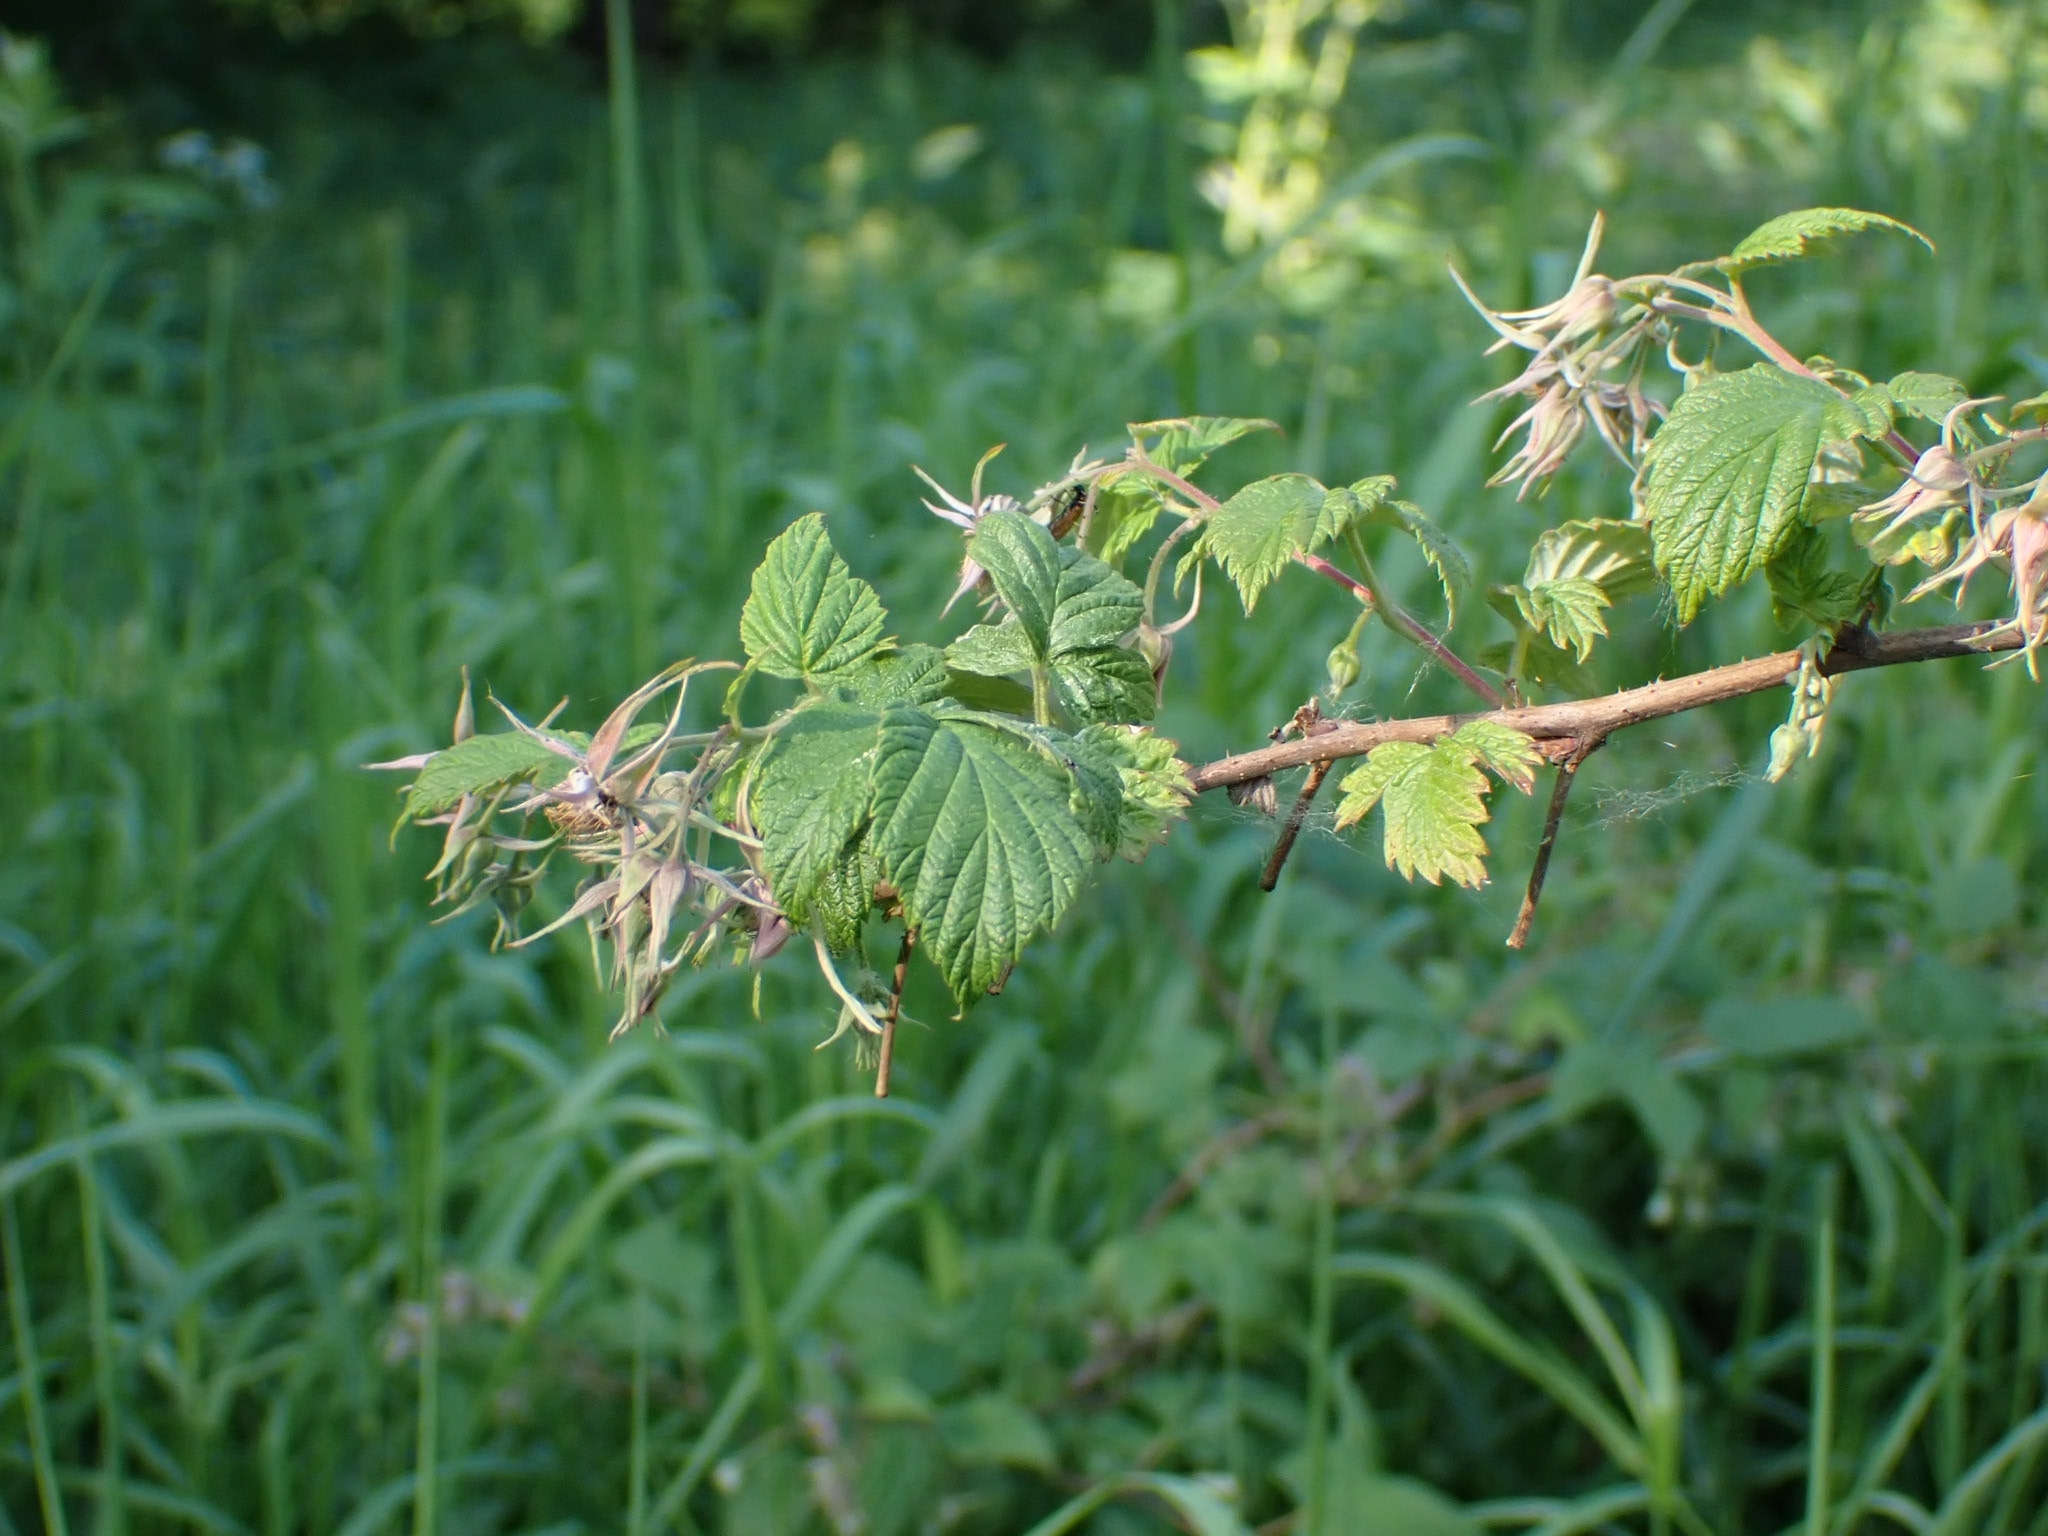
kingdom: Plantae
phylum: Tracheophyta
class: Magnoliopsida
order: Rosales
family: Rosaceae
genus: Rubus
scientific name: Rubus idaeus
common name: Raspberry
